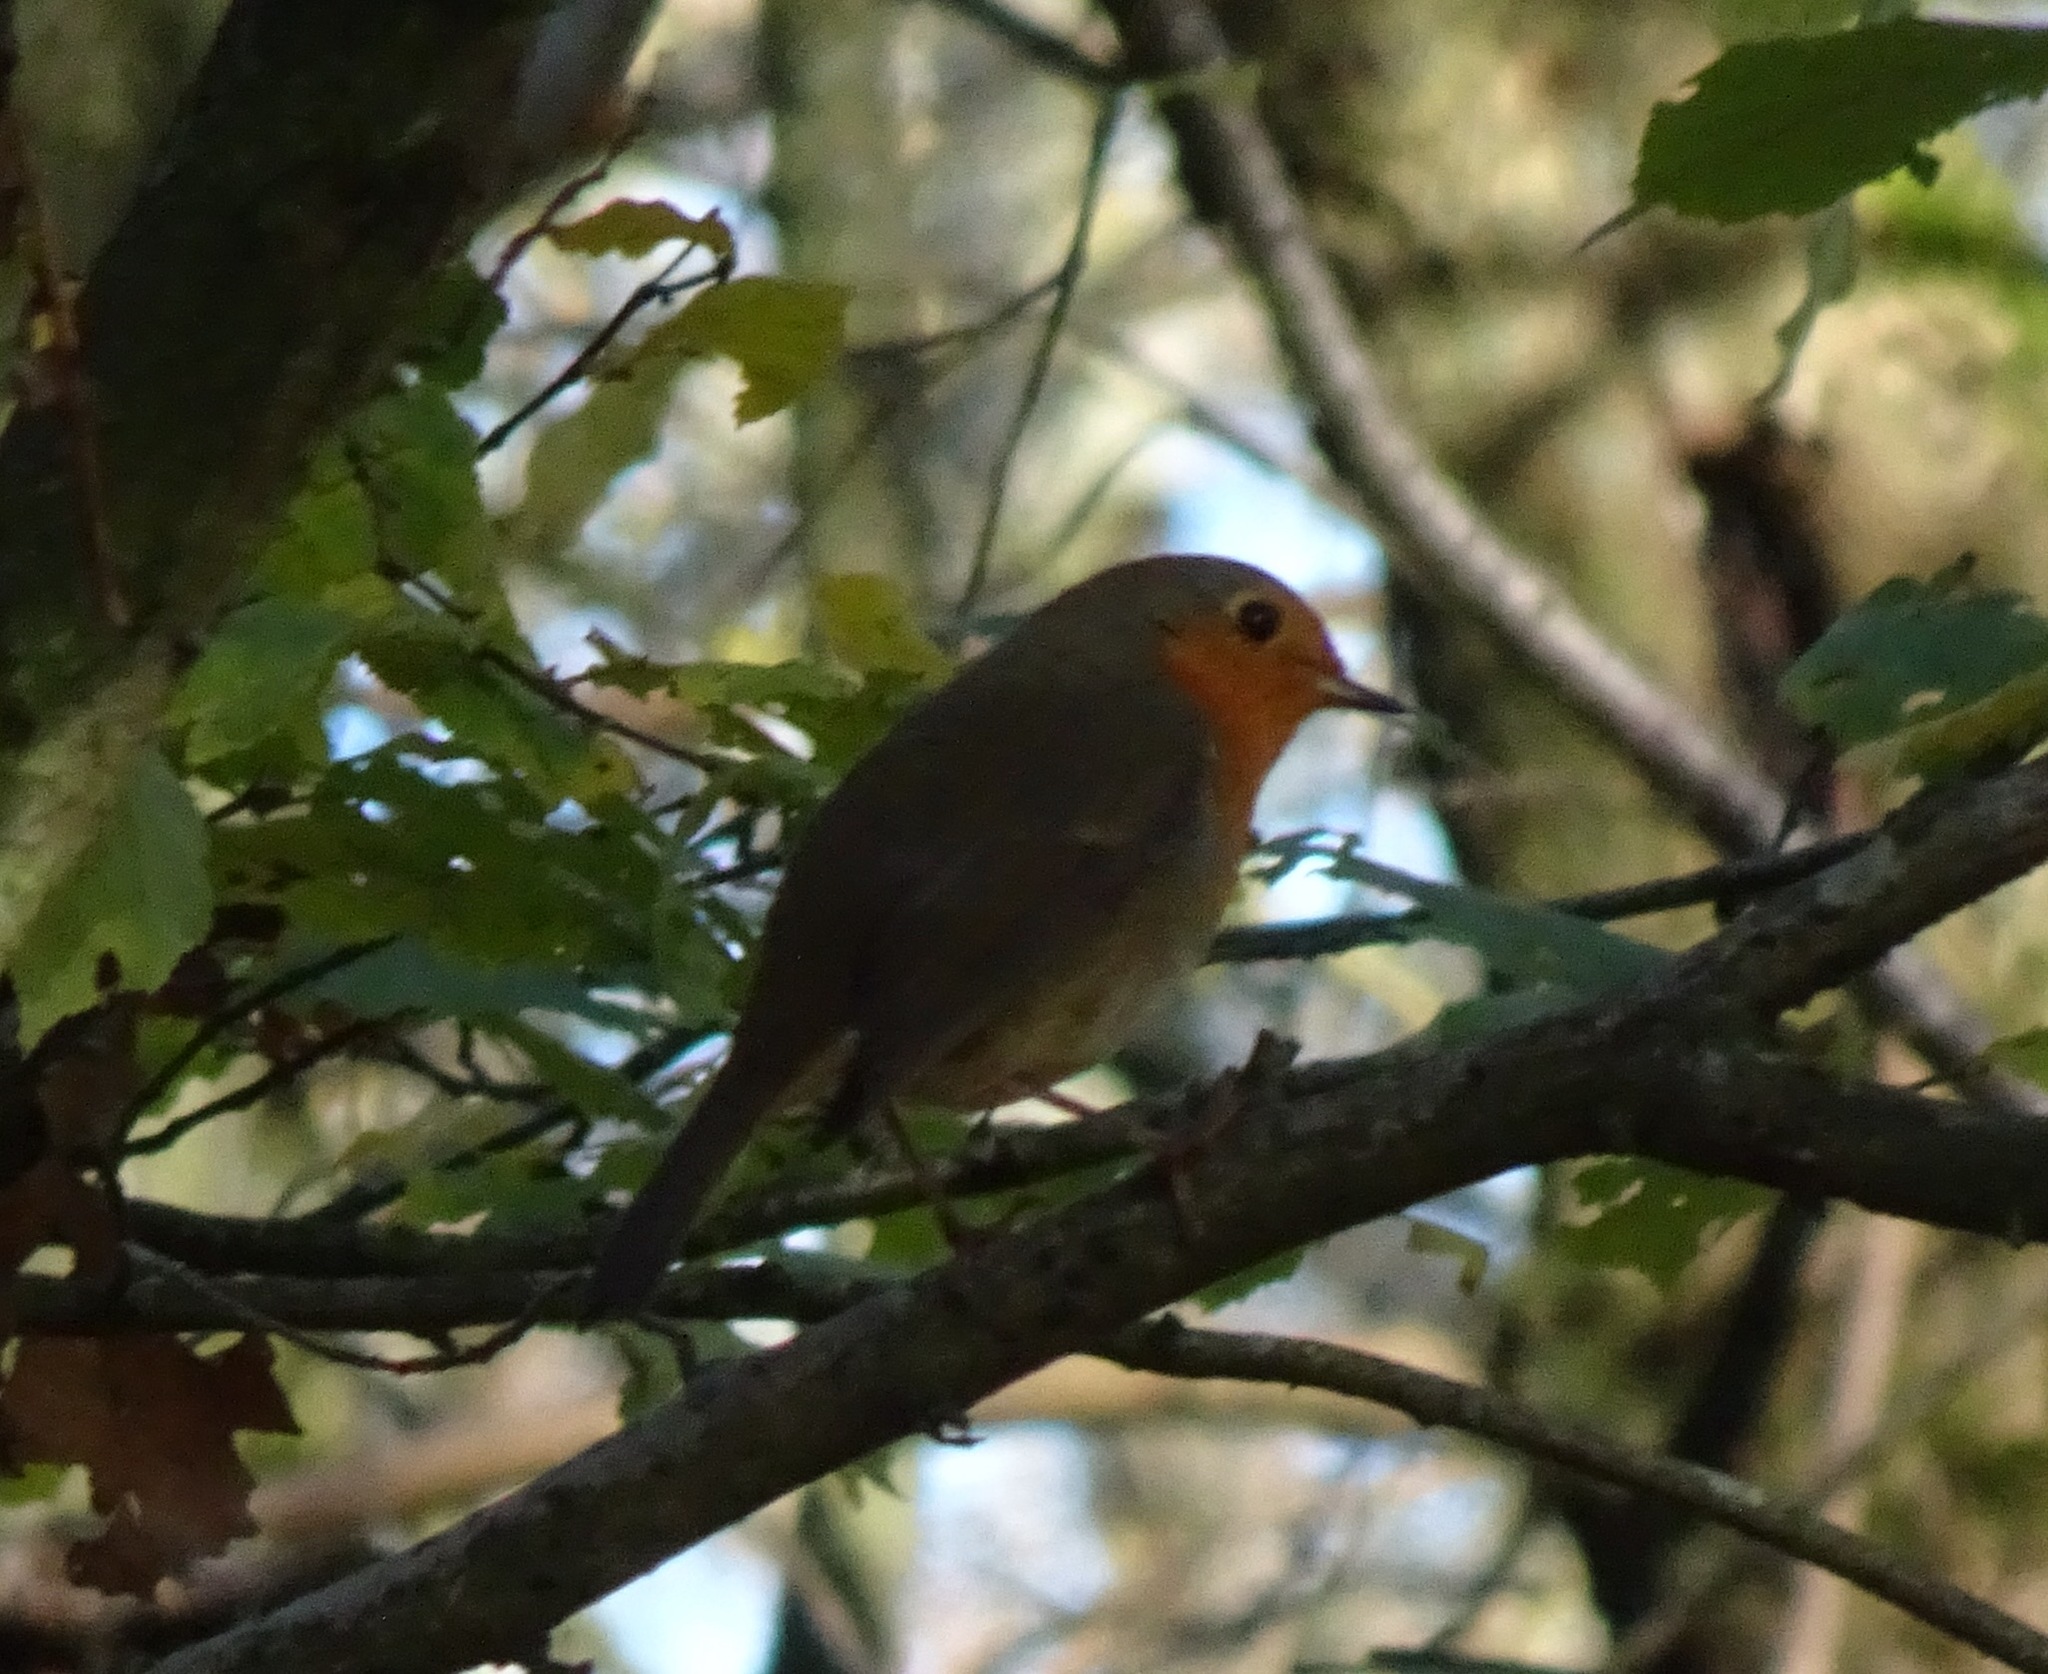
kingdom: Animalia
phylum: Chordata
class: Aves
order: Passeriformes
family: Muscicapidae
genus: Erithacus
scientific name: Erithacus rubecula
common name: European robin
